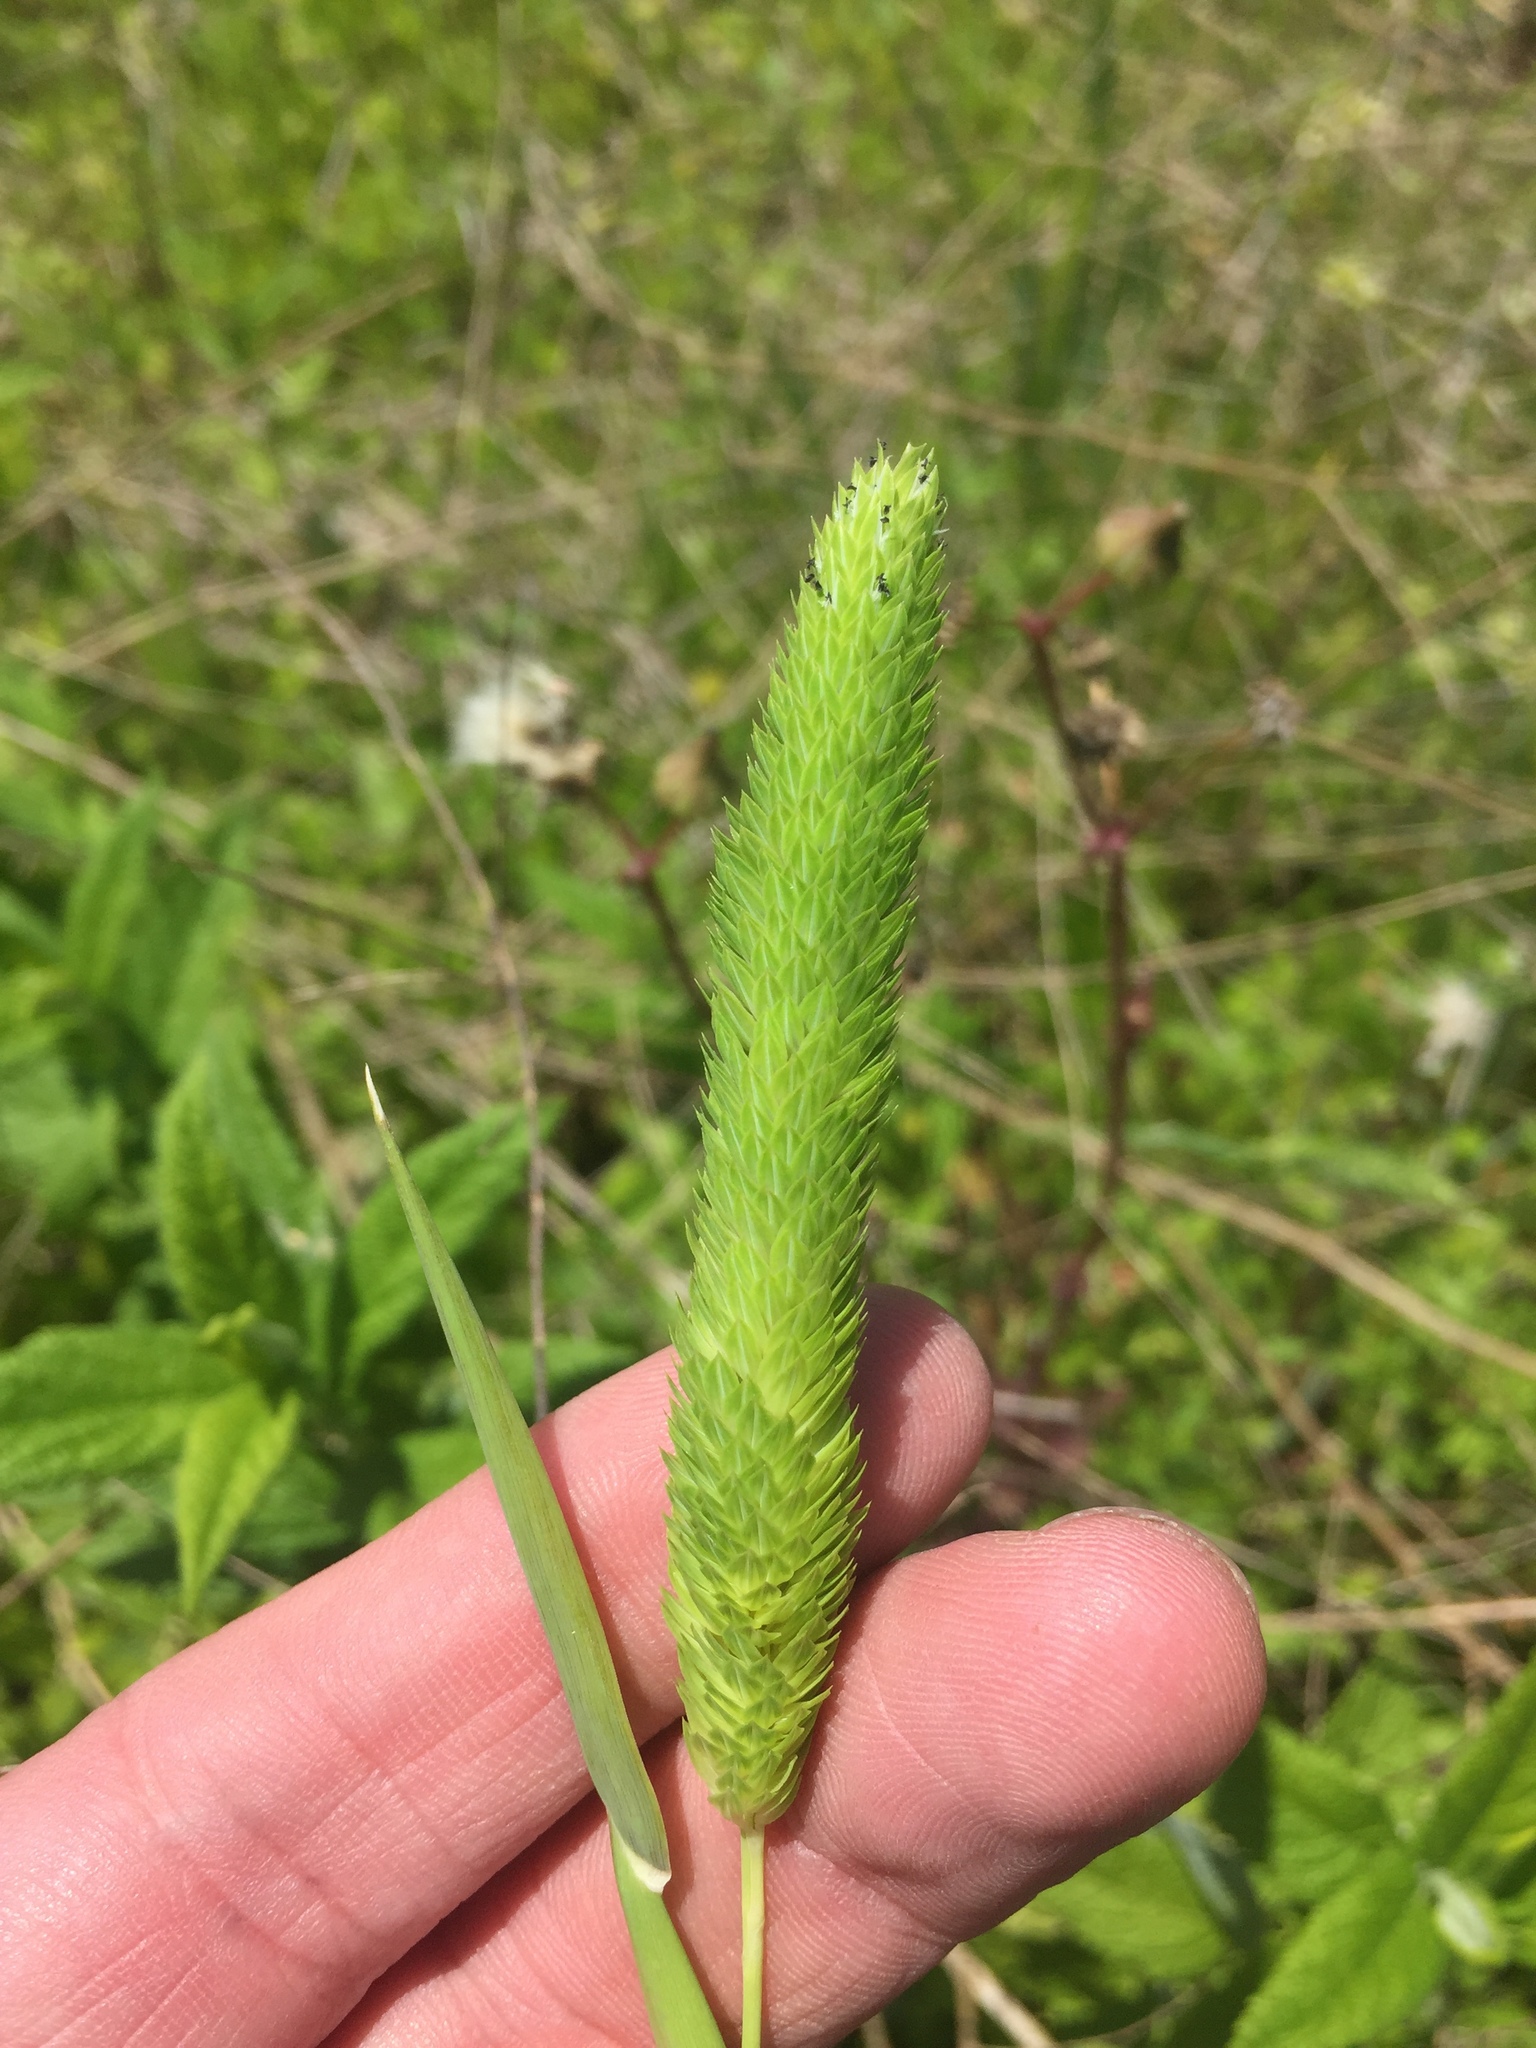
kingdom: Plantae
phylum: Tracheophyta
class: Liliopsida
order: Poales
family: Poaceae
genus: Phalaris
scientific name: Phalaris caroliniana
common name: May grass
